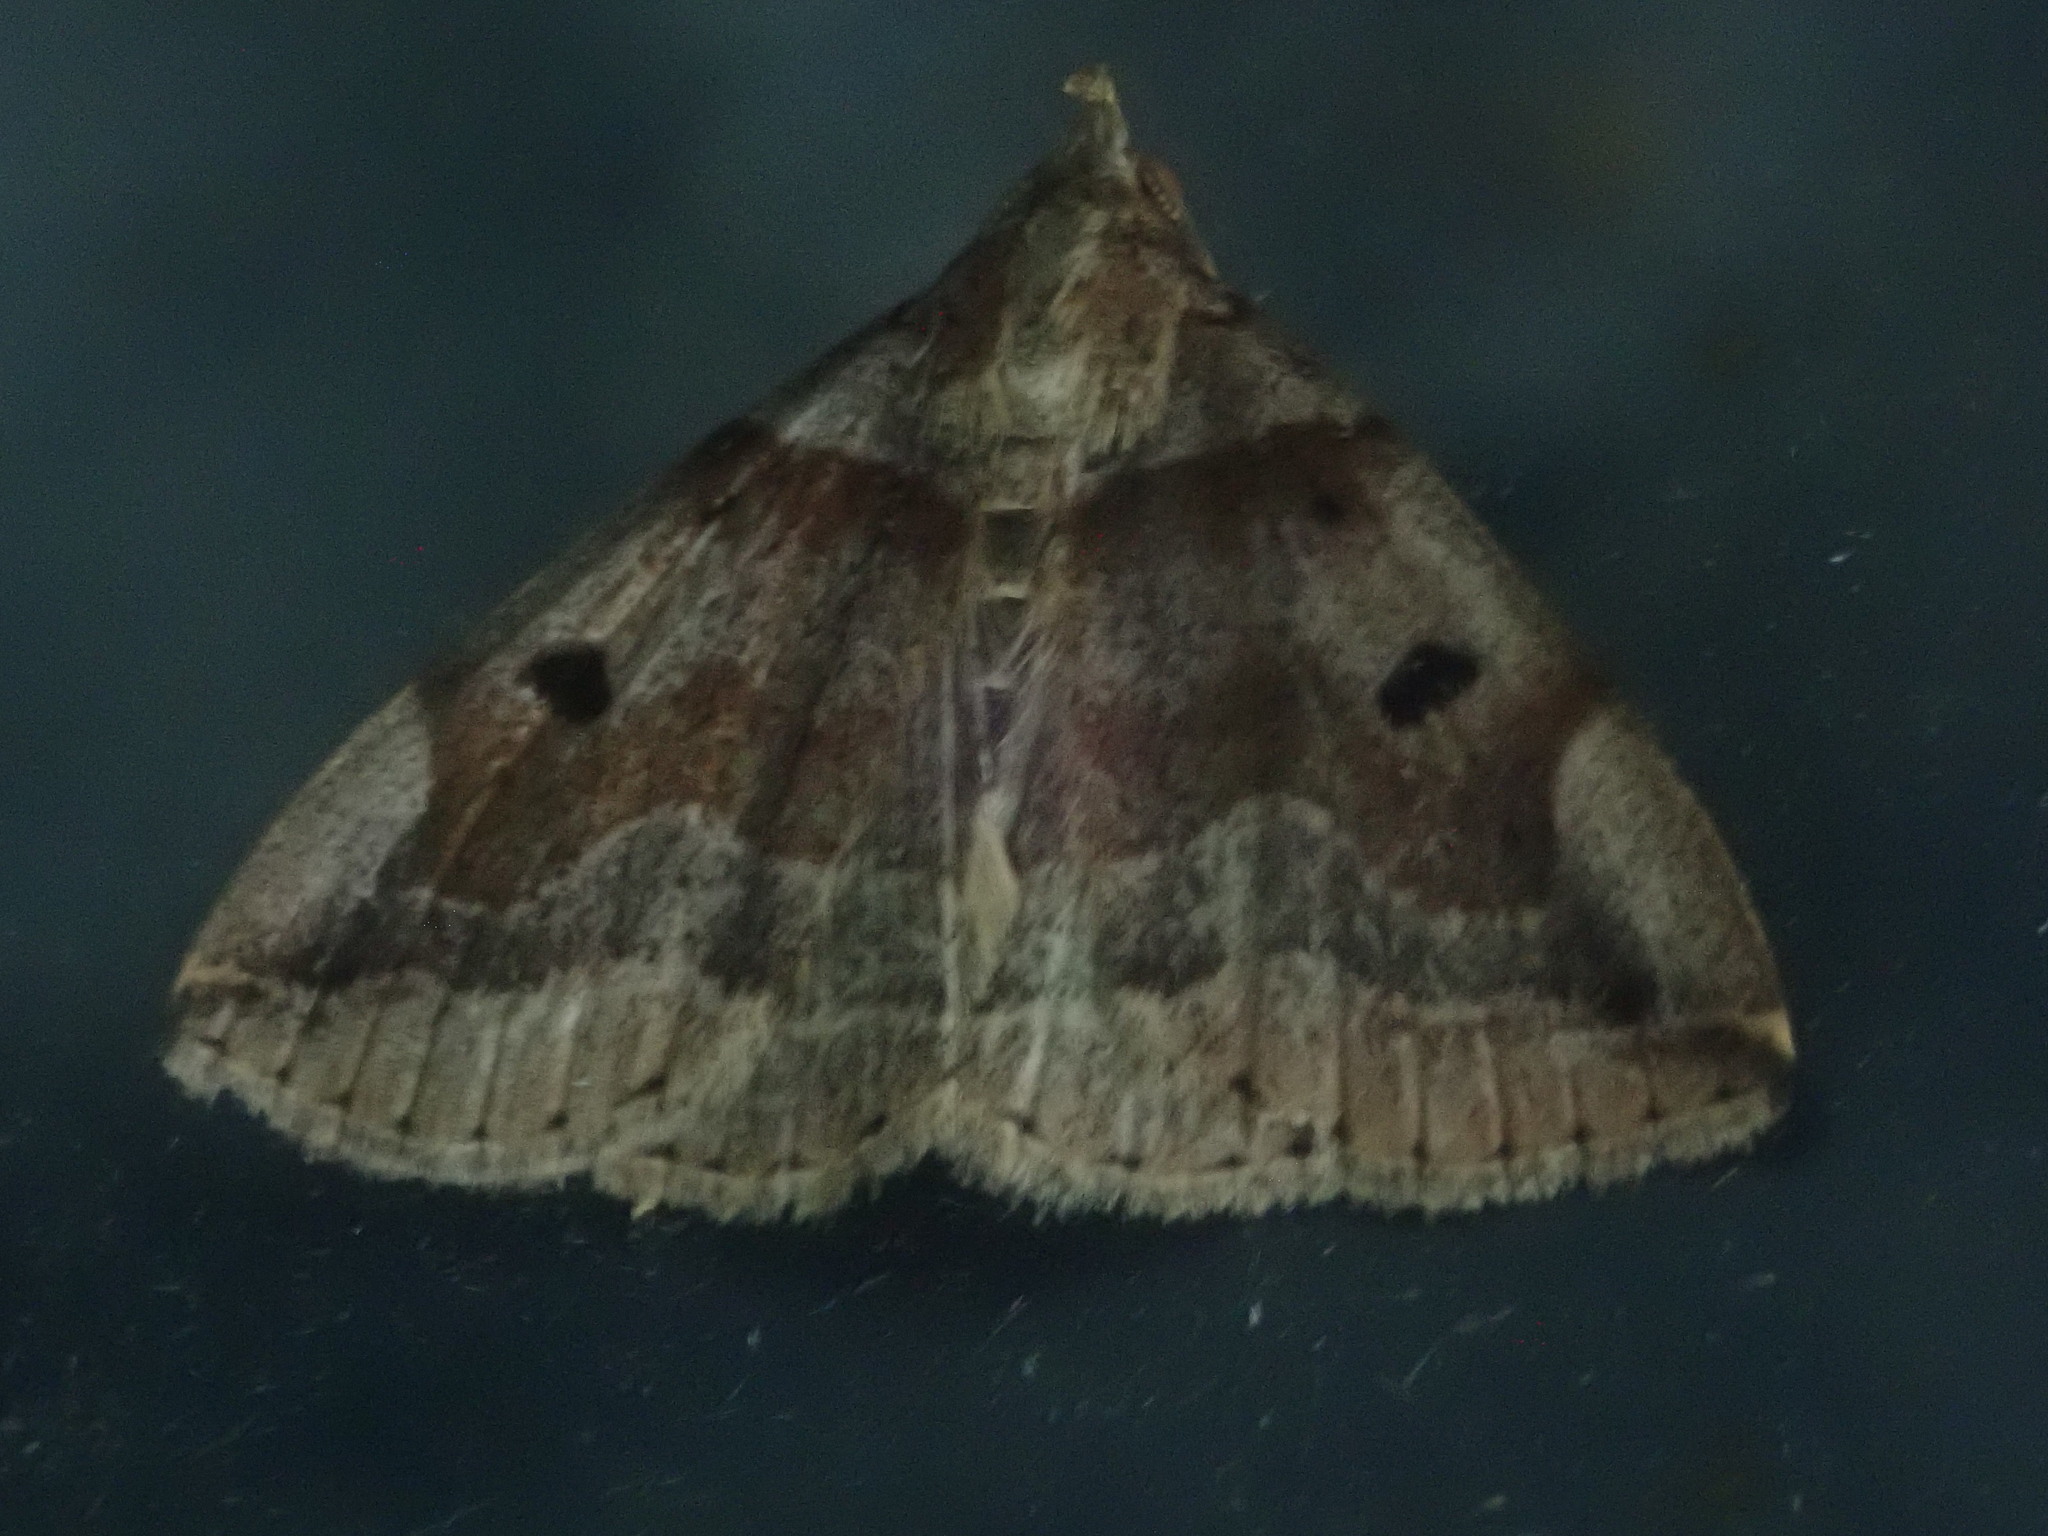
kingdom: Animalia
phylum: Arthropoda
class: Insecta
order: Lepidoptera
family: Erebidae
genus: Zanclognatha
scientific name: Zanclognatha laevigata
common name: Variable fan-foot
